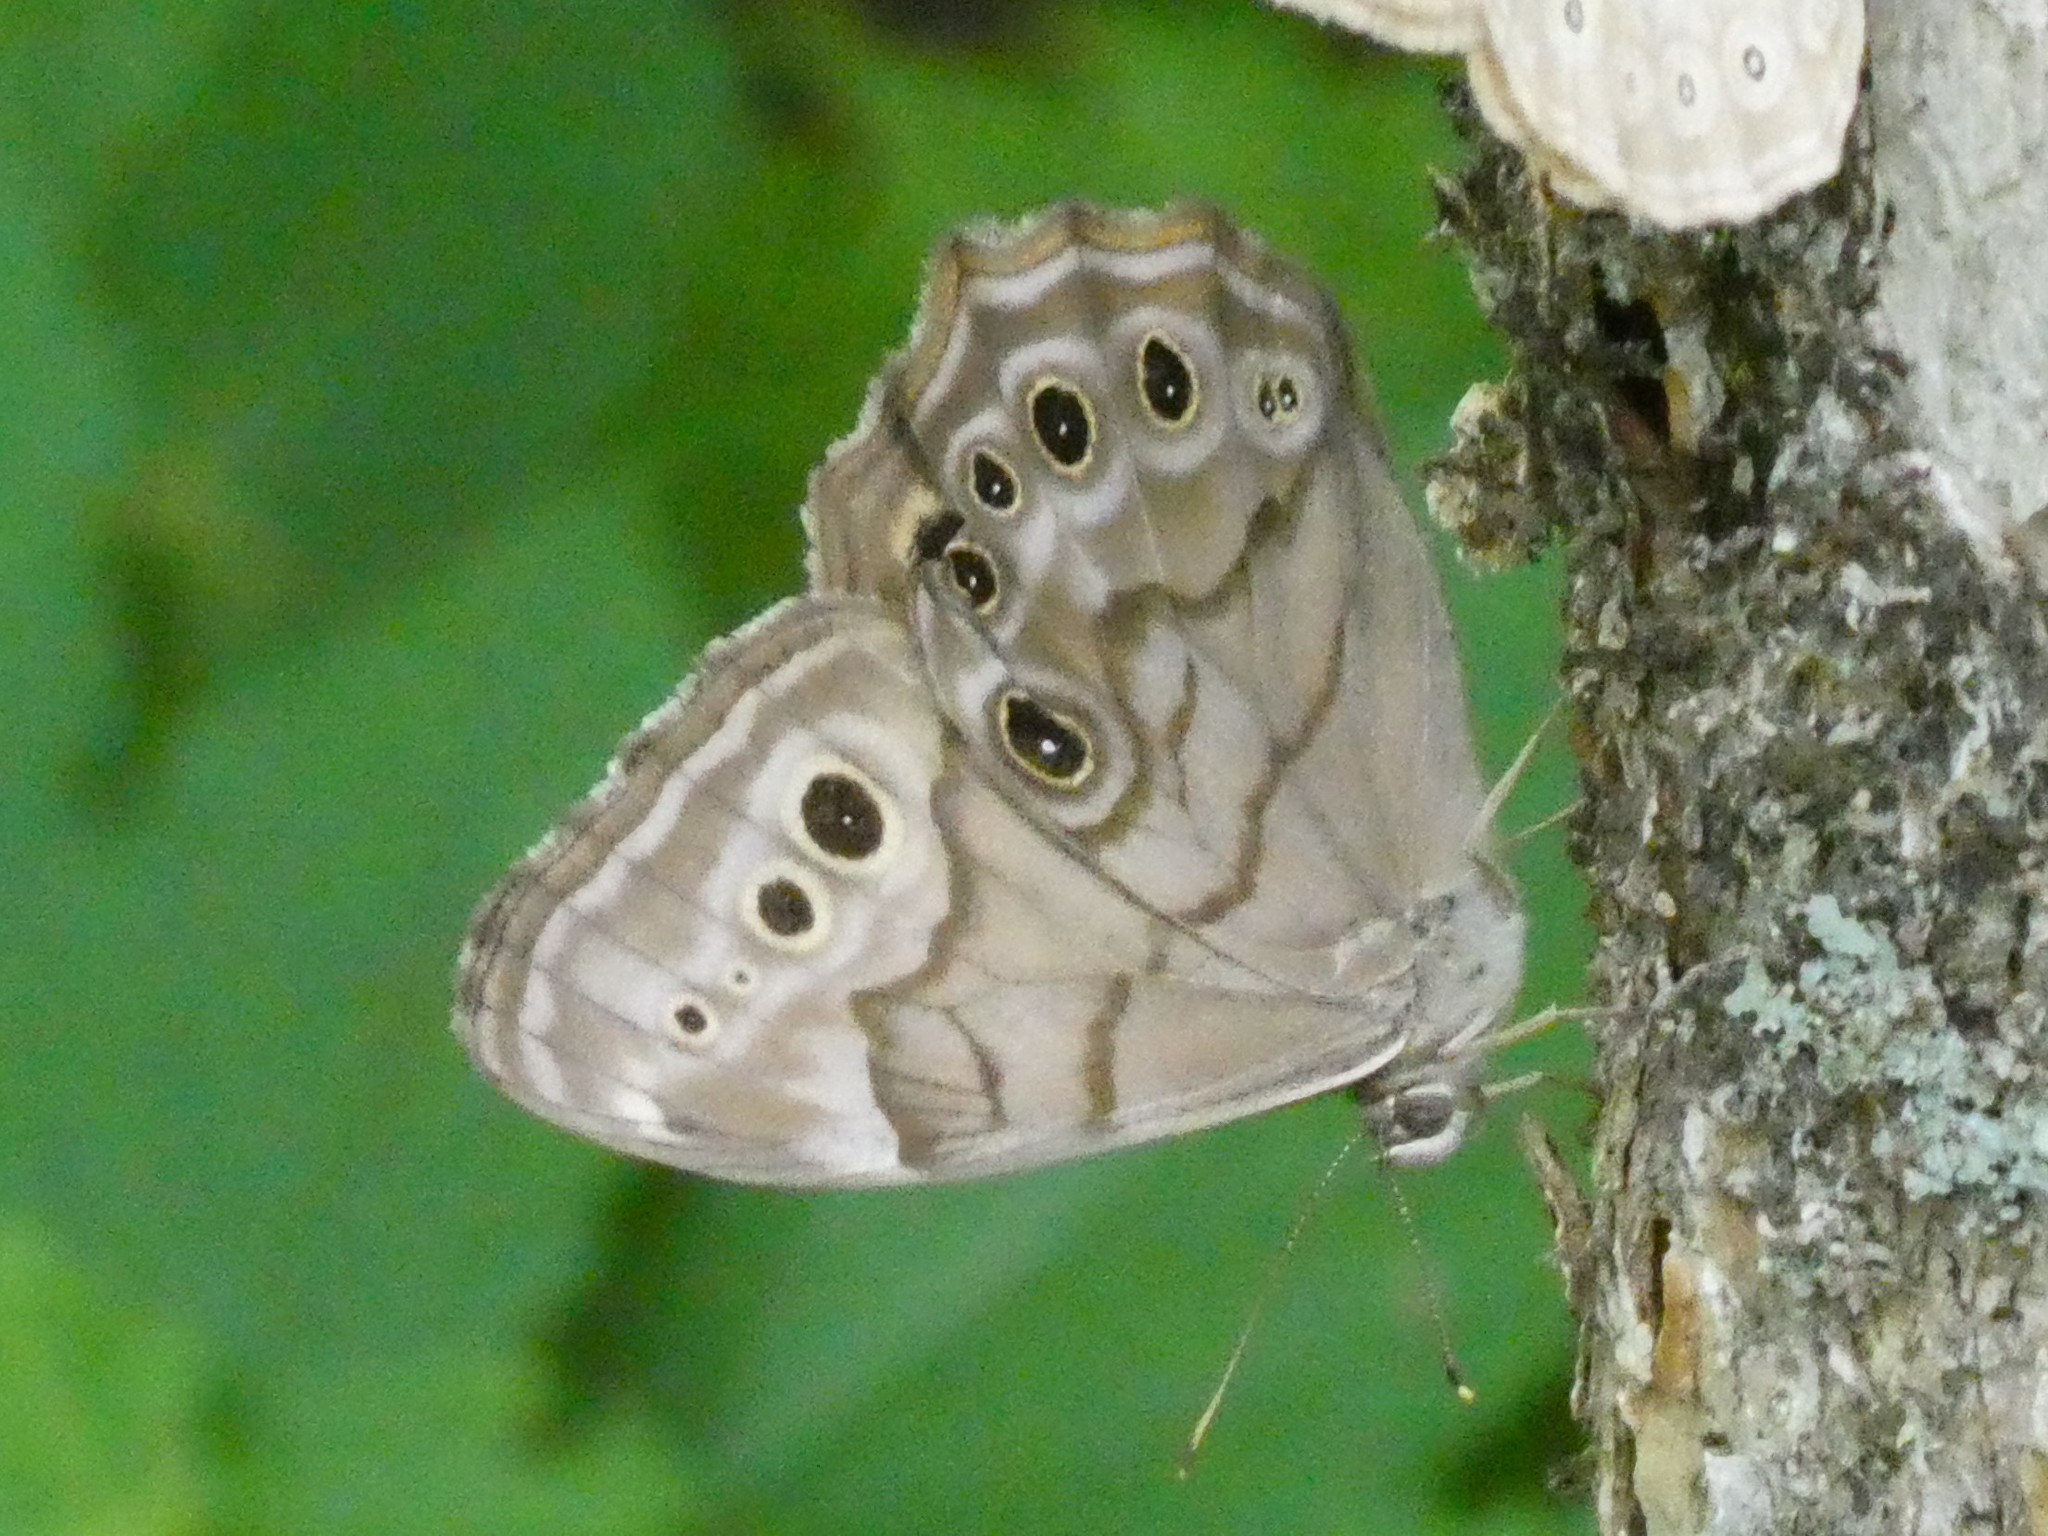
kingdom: Animalia
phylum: Arthropoda
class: Insecta
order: Lepidoptera
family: Nymphalidae
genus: Lethe
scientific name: Lethe anthedon
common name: Northern pearly-eye
